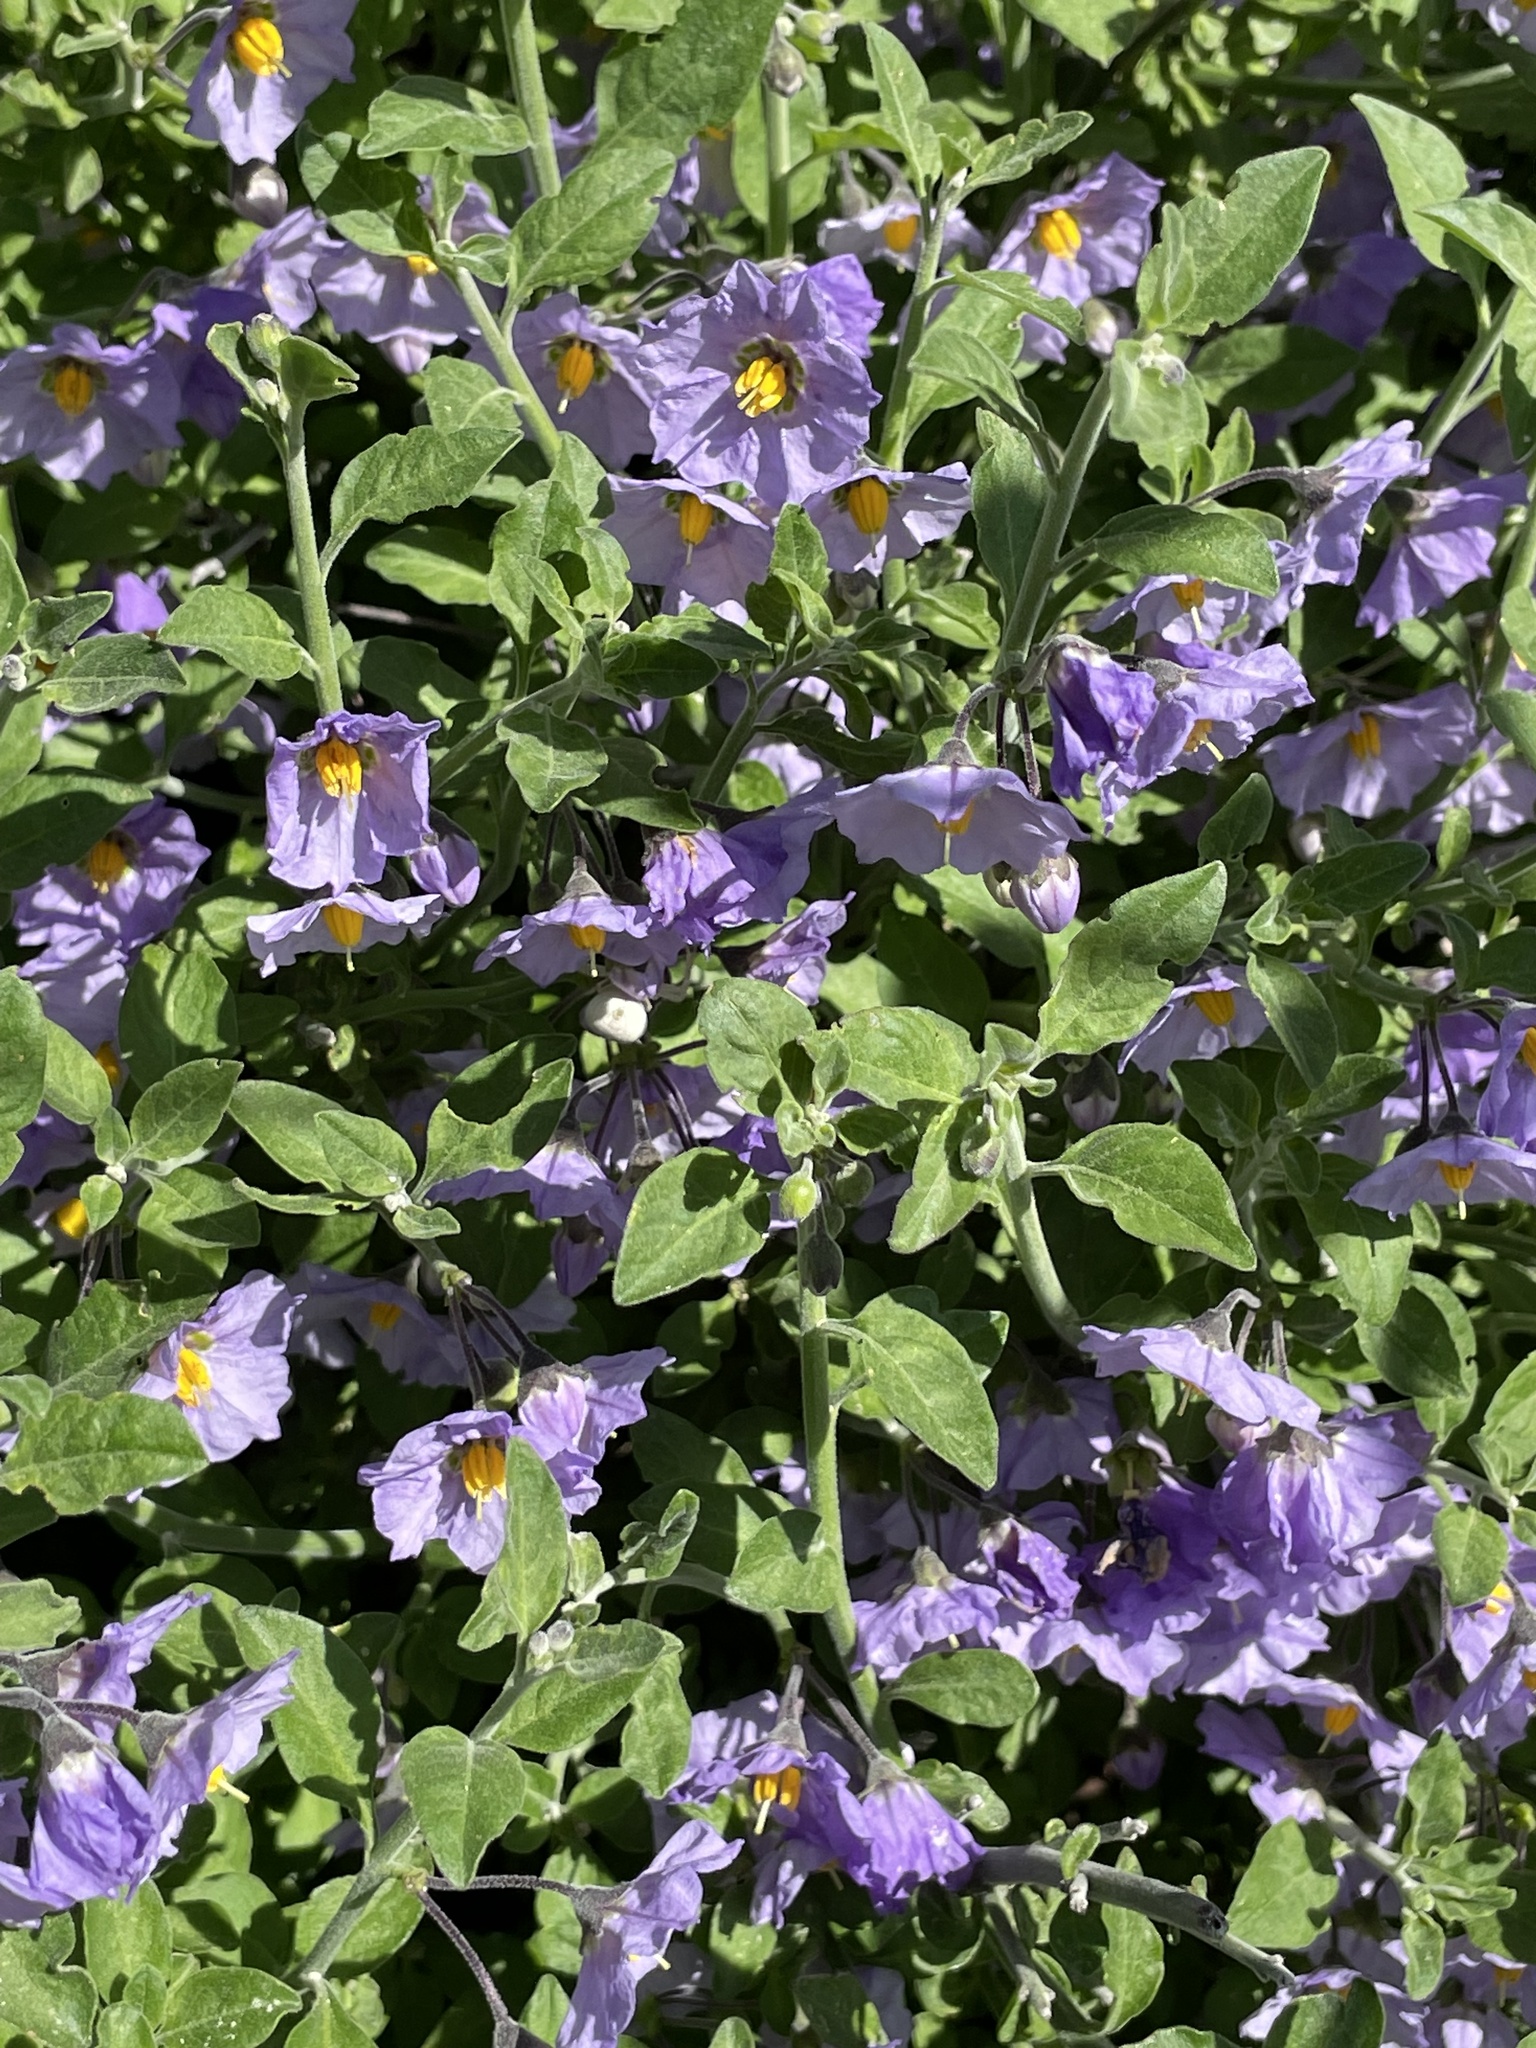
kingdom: Plantae
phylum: Tracheophyta
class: Magnoliopsida
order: Solanales
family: Solanaceae
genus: Solanum
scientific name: Solanum umbelliferum
